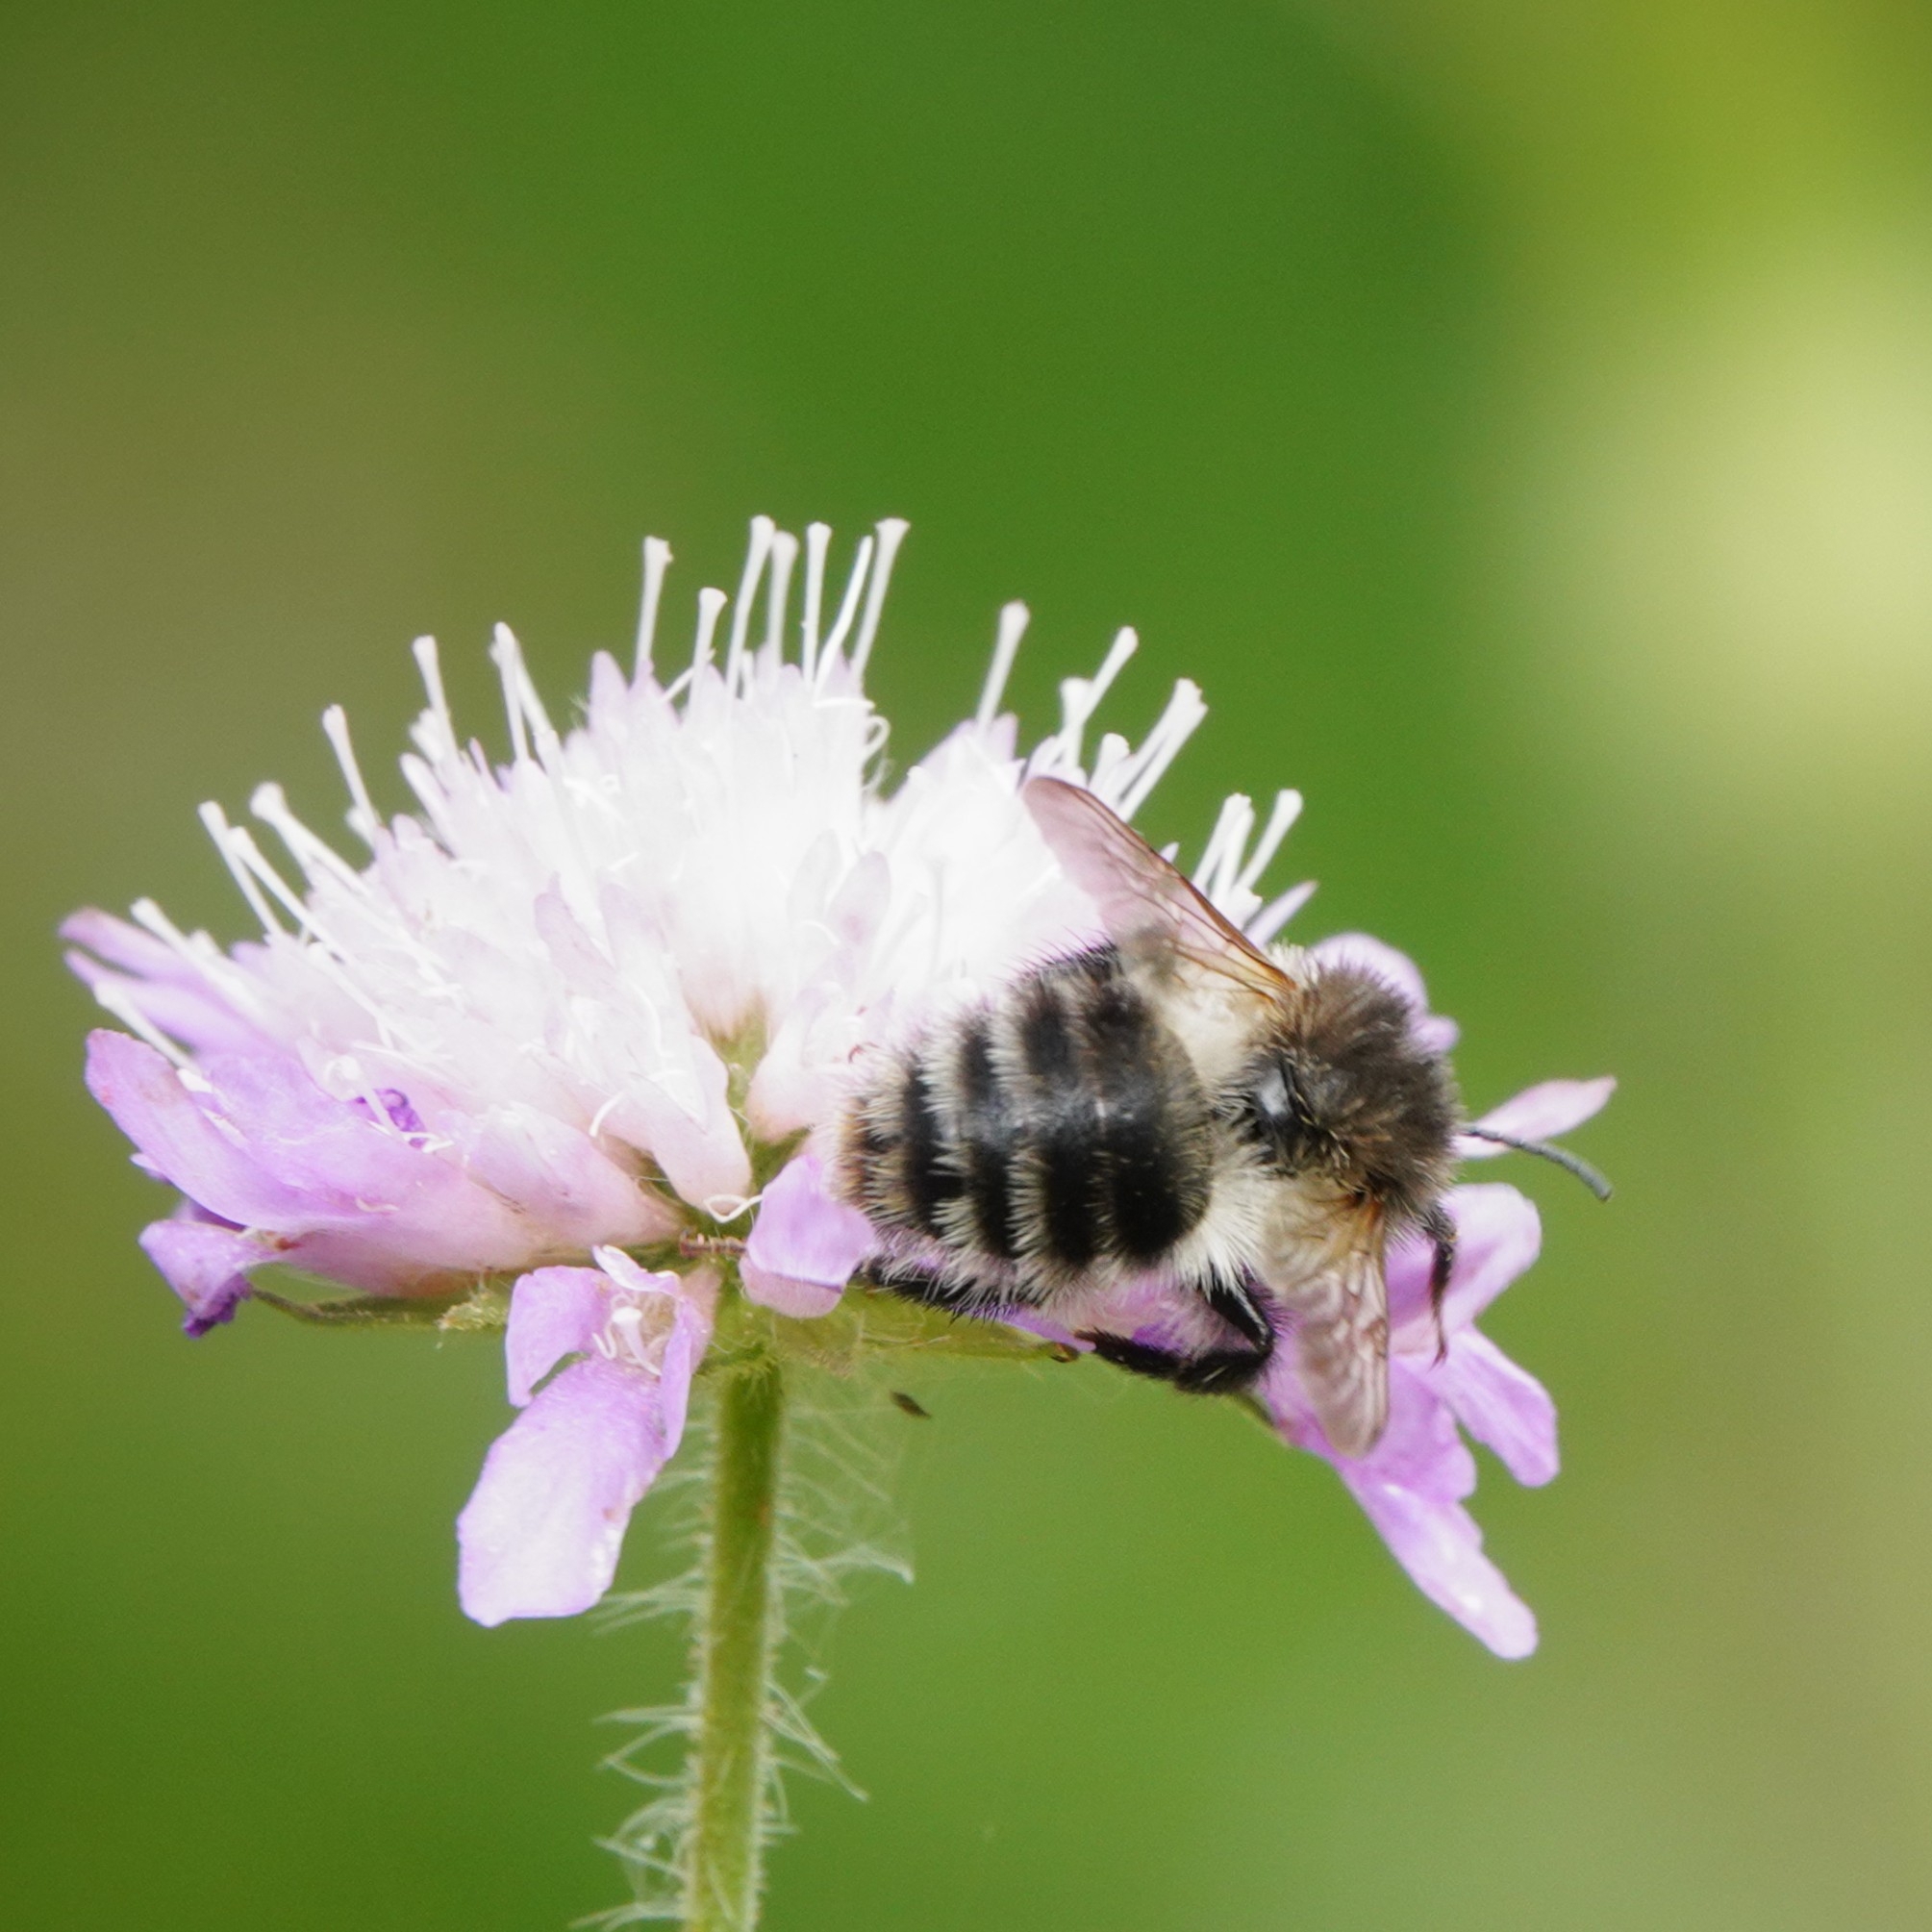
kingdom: Animalia
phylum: Arthropoda
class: Insecta
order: Hymenoptera
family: Apidae
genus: Bombus
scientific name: Bombus pascuorum
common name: Common carder bee
